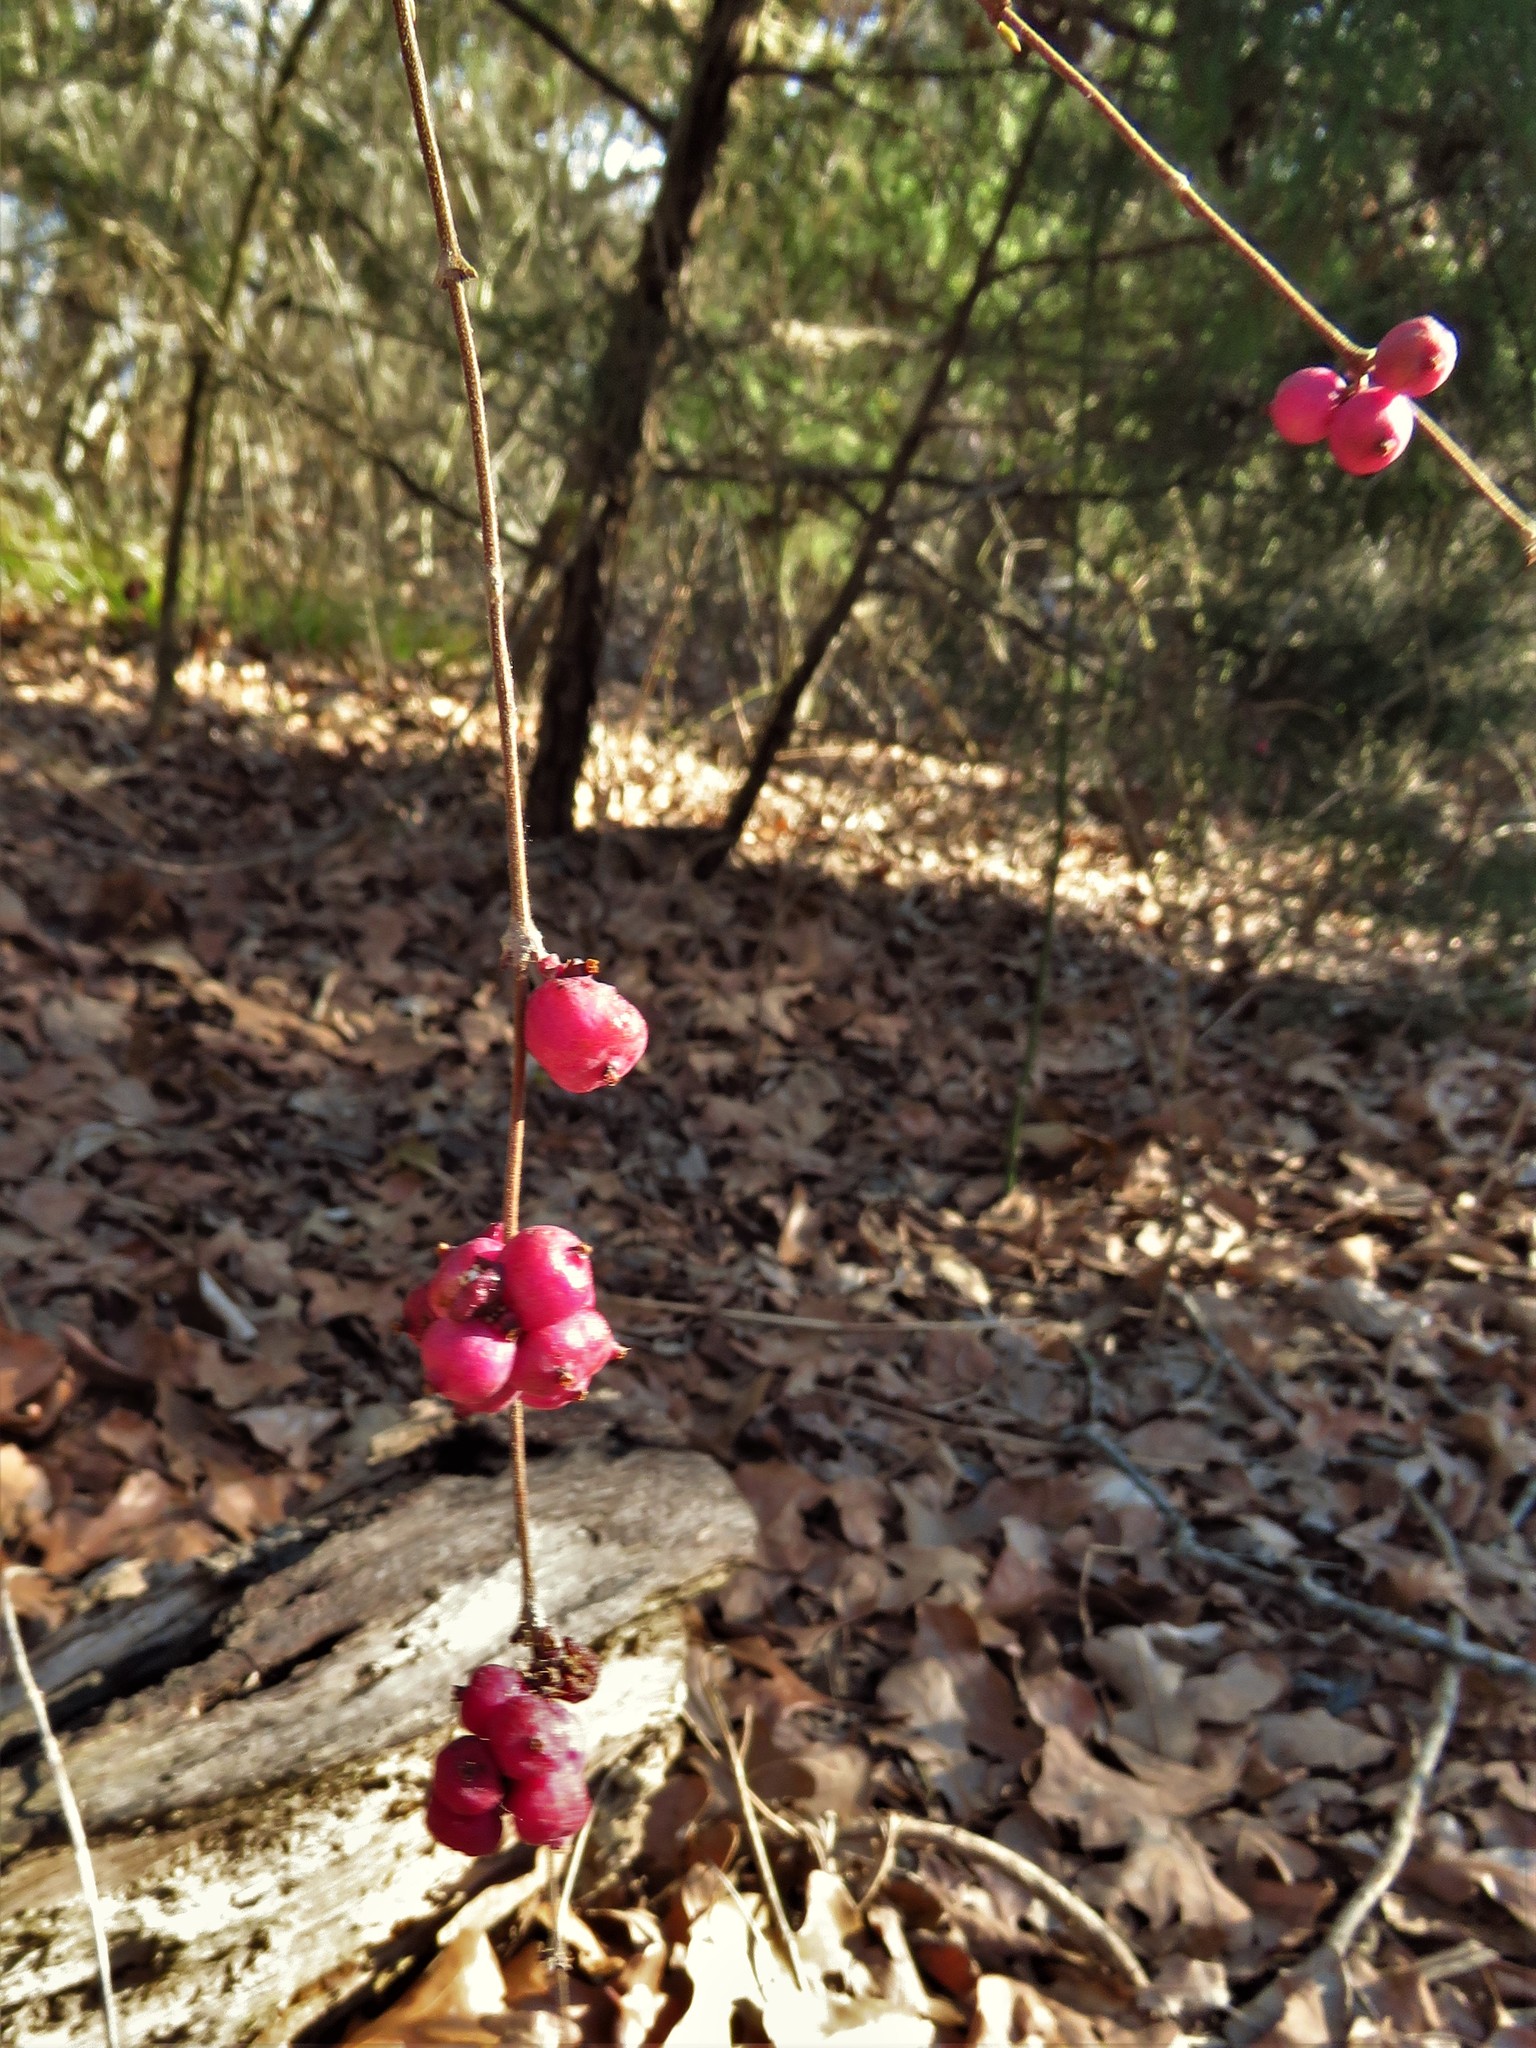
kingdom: Plantae
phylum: Tracheophyta
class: Magnoliopsida
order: Dipsacales
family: Caprifoliaceae
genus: Symphoricarpos
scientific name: Symphoricarpos orbiculatus
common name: Coralberry
